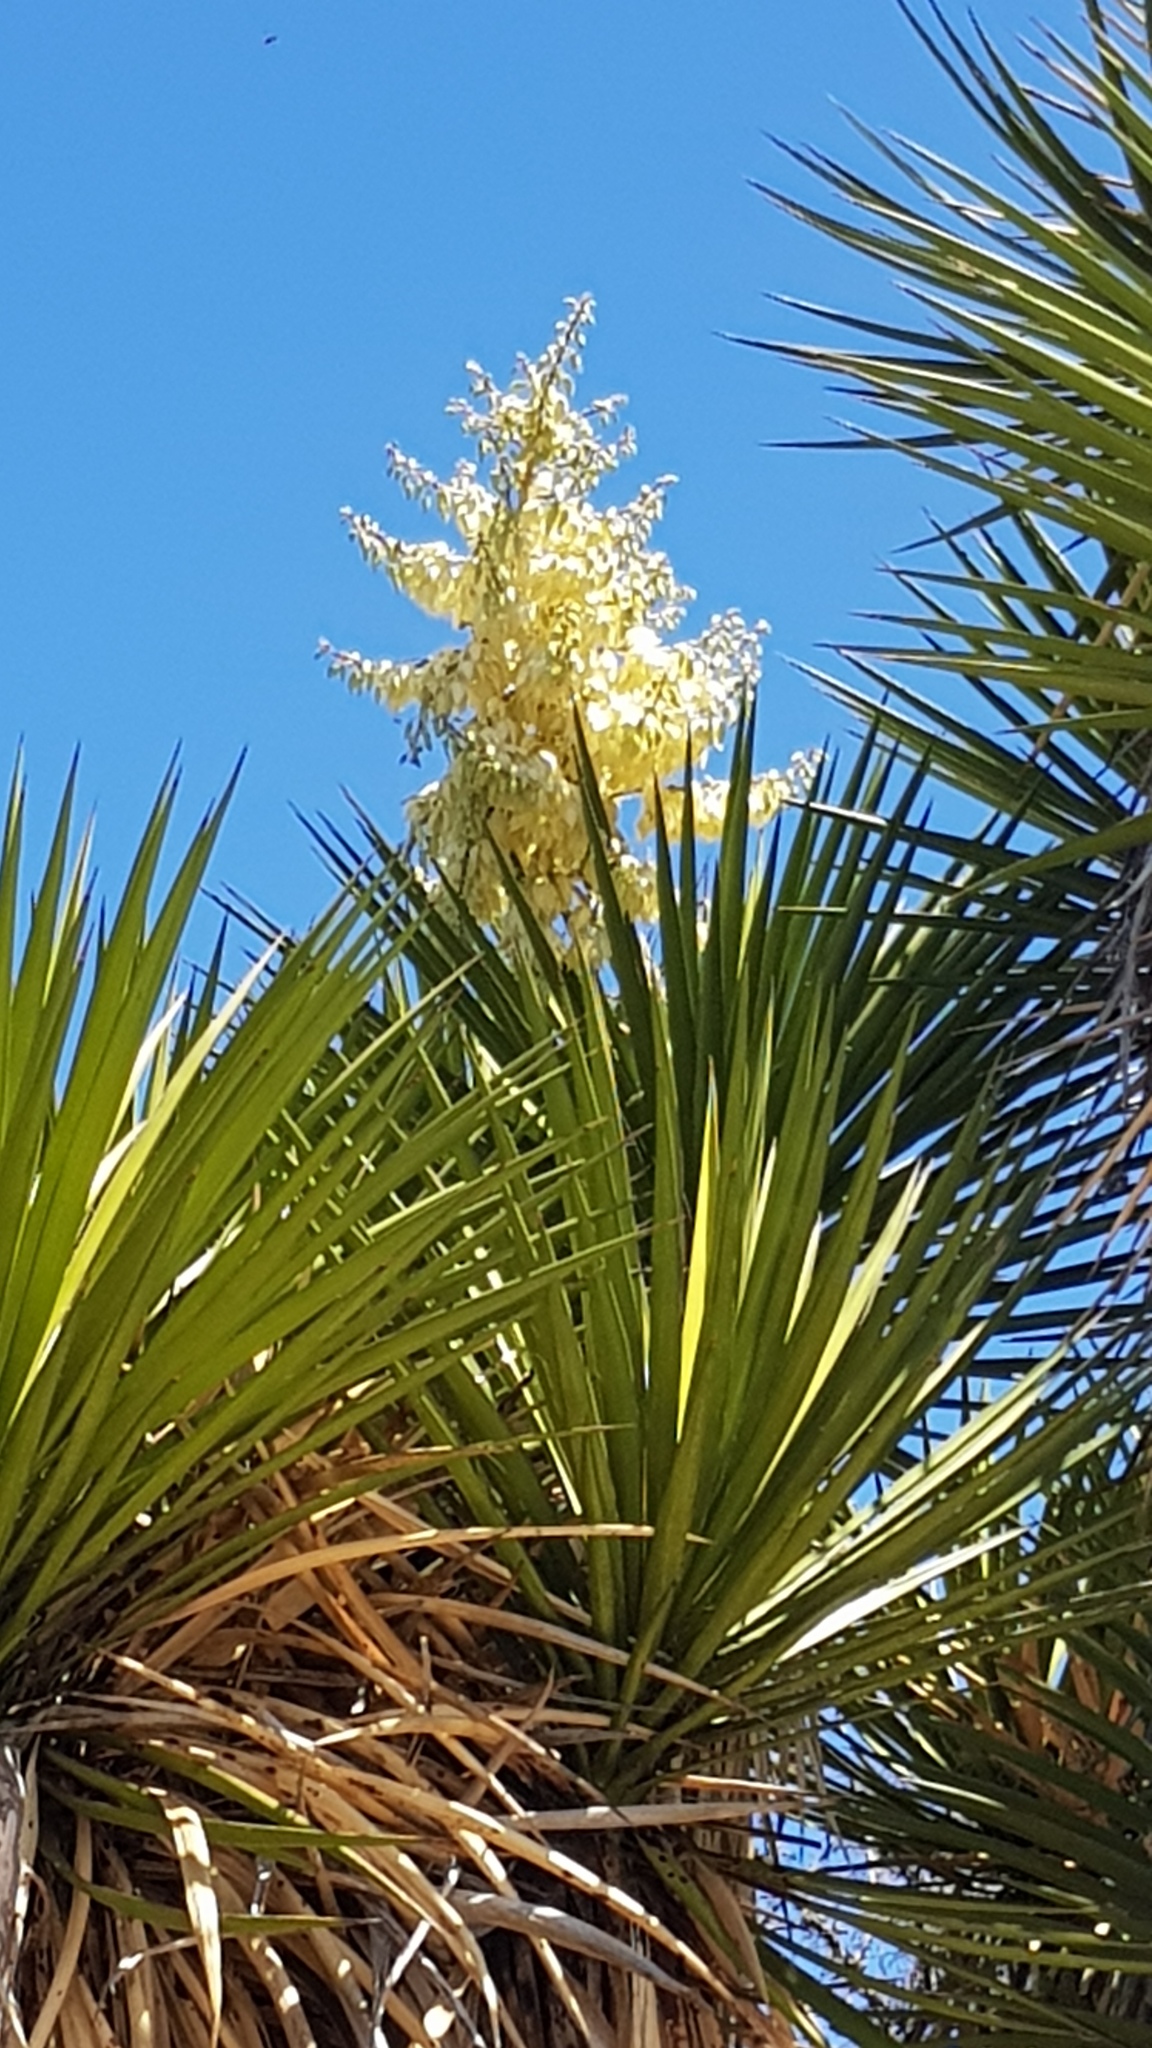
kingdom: Plantae
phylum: Tracheophyta
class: Liliopsida
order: Asparagales
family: Asparagaceae
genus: Yucca
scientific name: Yucca periculosa
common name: Izote yucca
